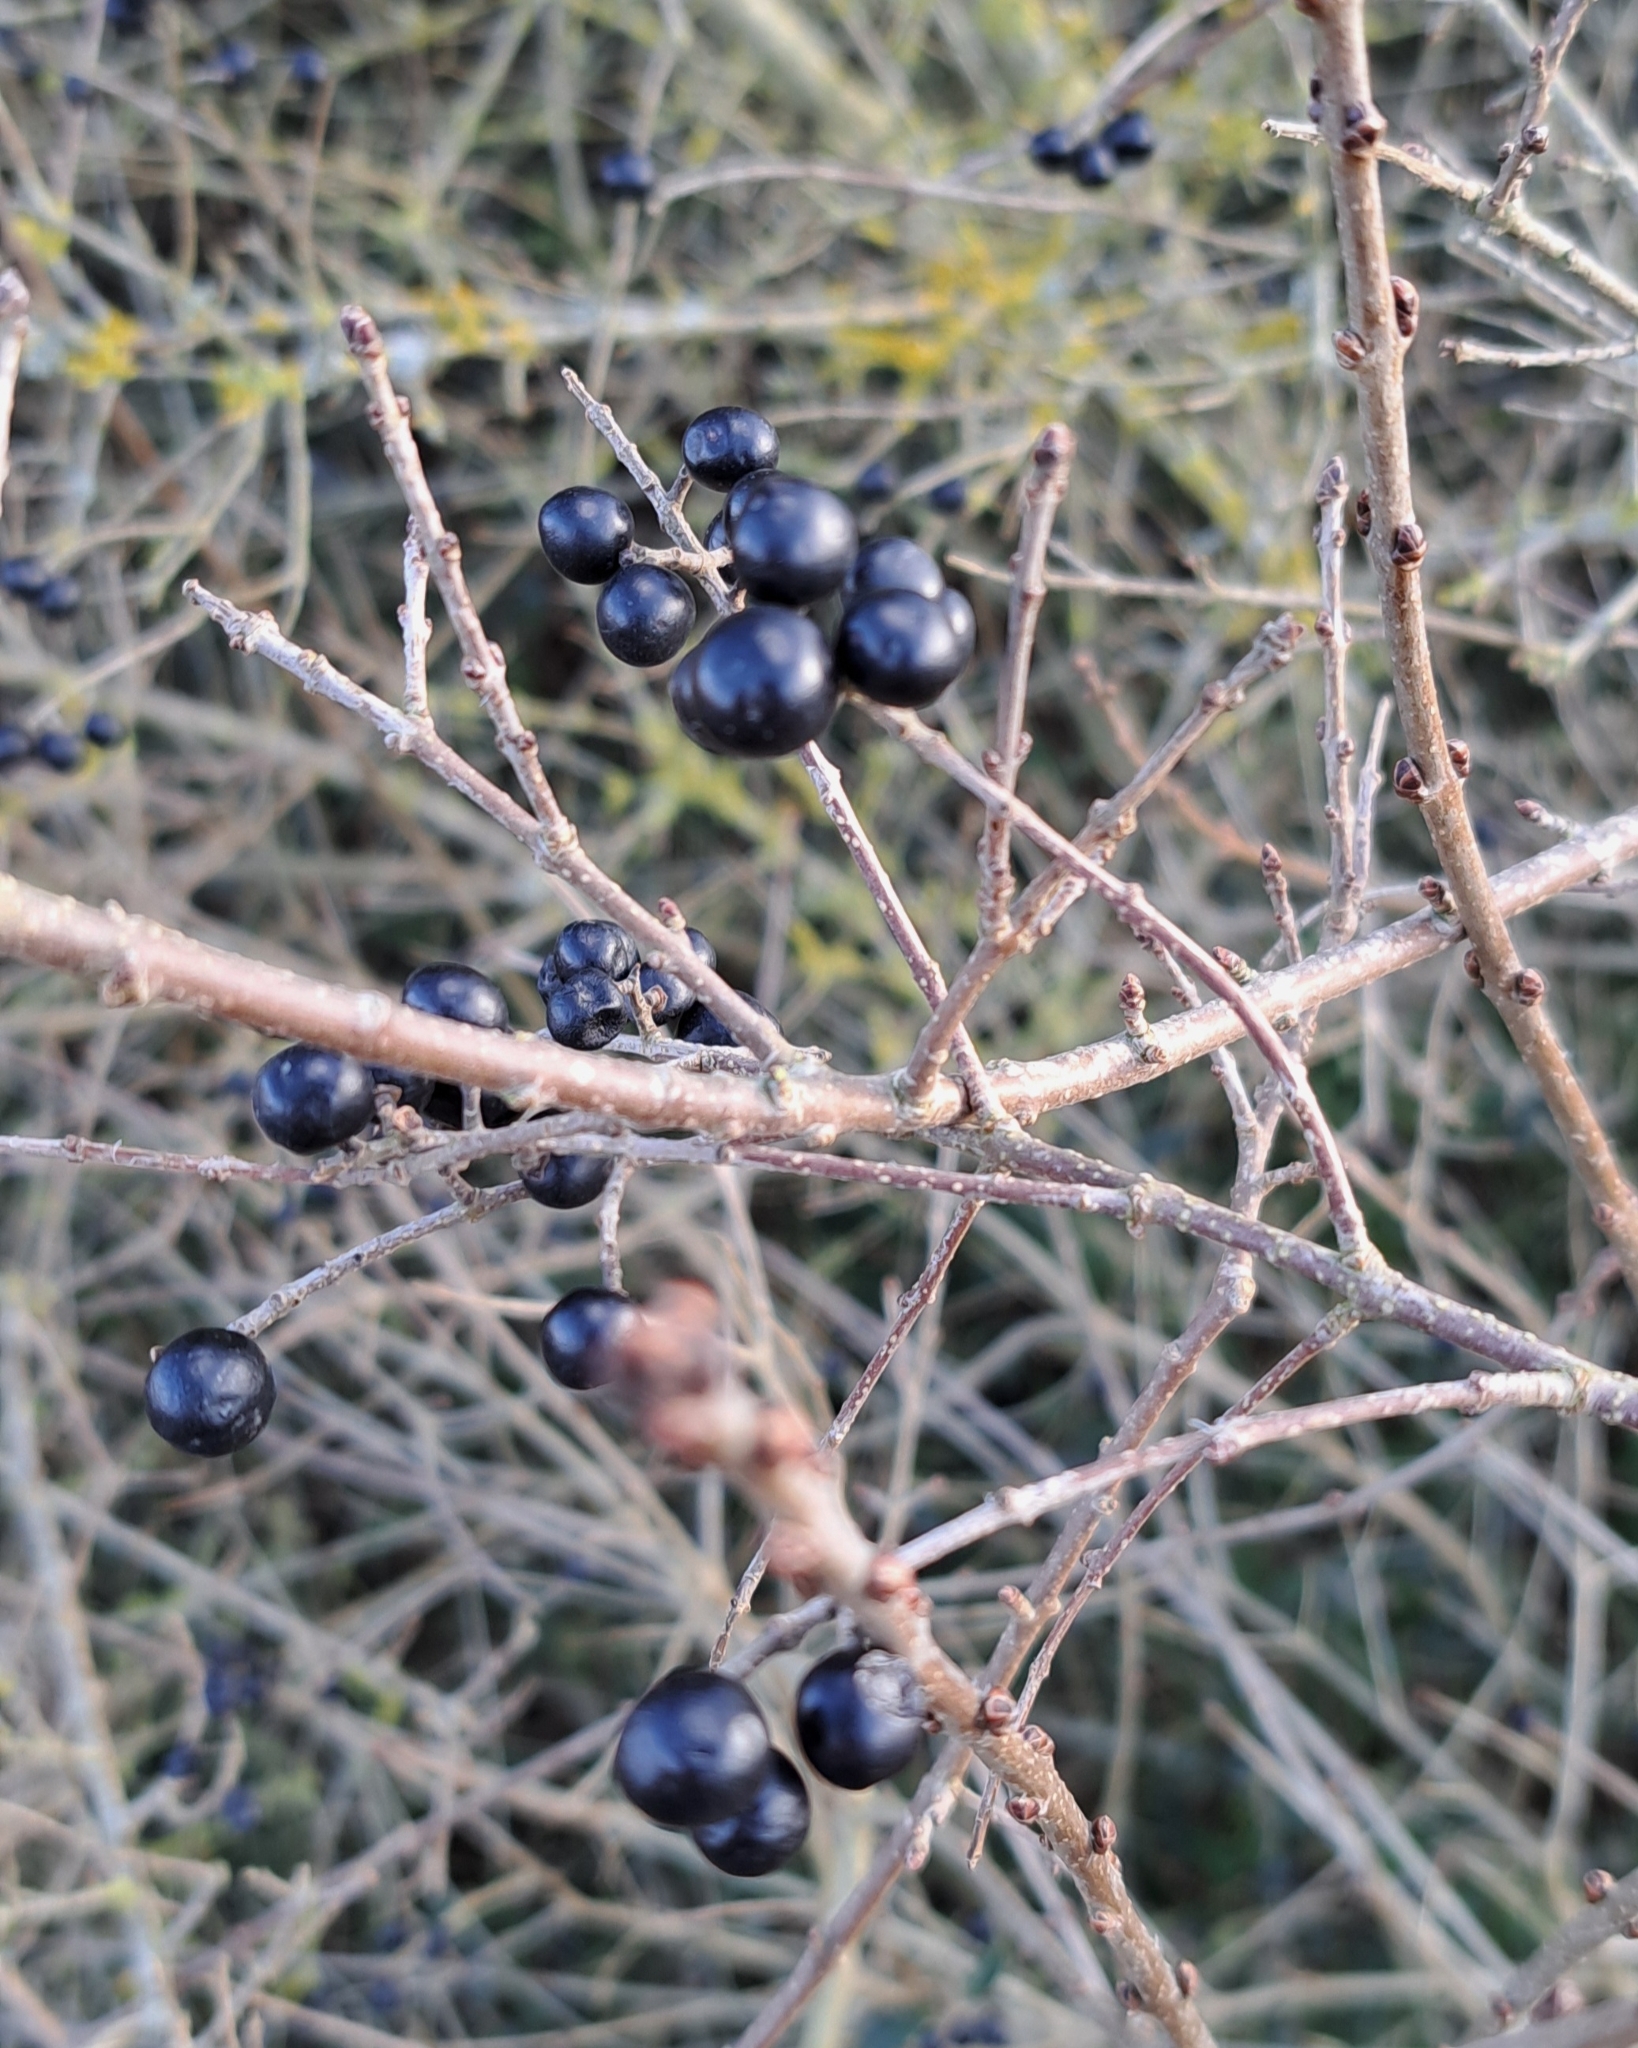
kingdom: Plantae
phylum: Tracheophyta
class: Magnoliopsida
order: Lamiales
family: Oleaceae
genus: Ligustrum
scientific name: Ligustrum vulgare
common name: Wild privet
